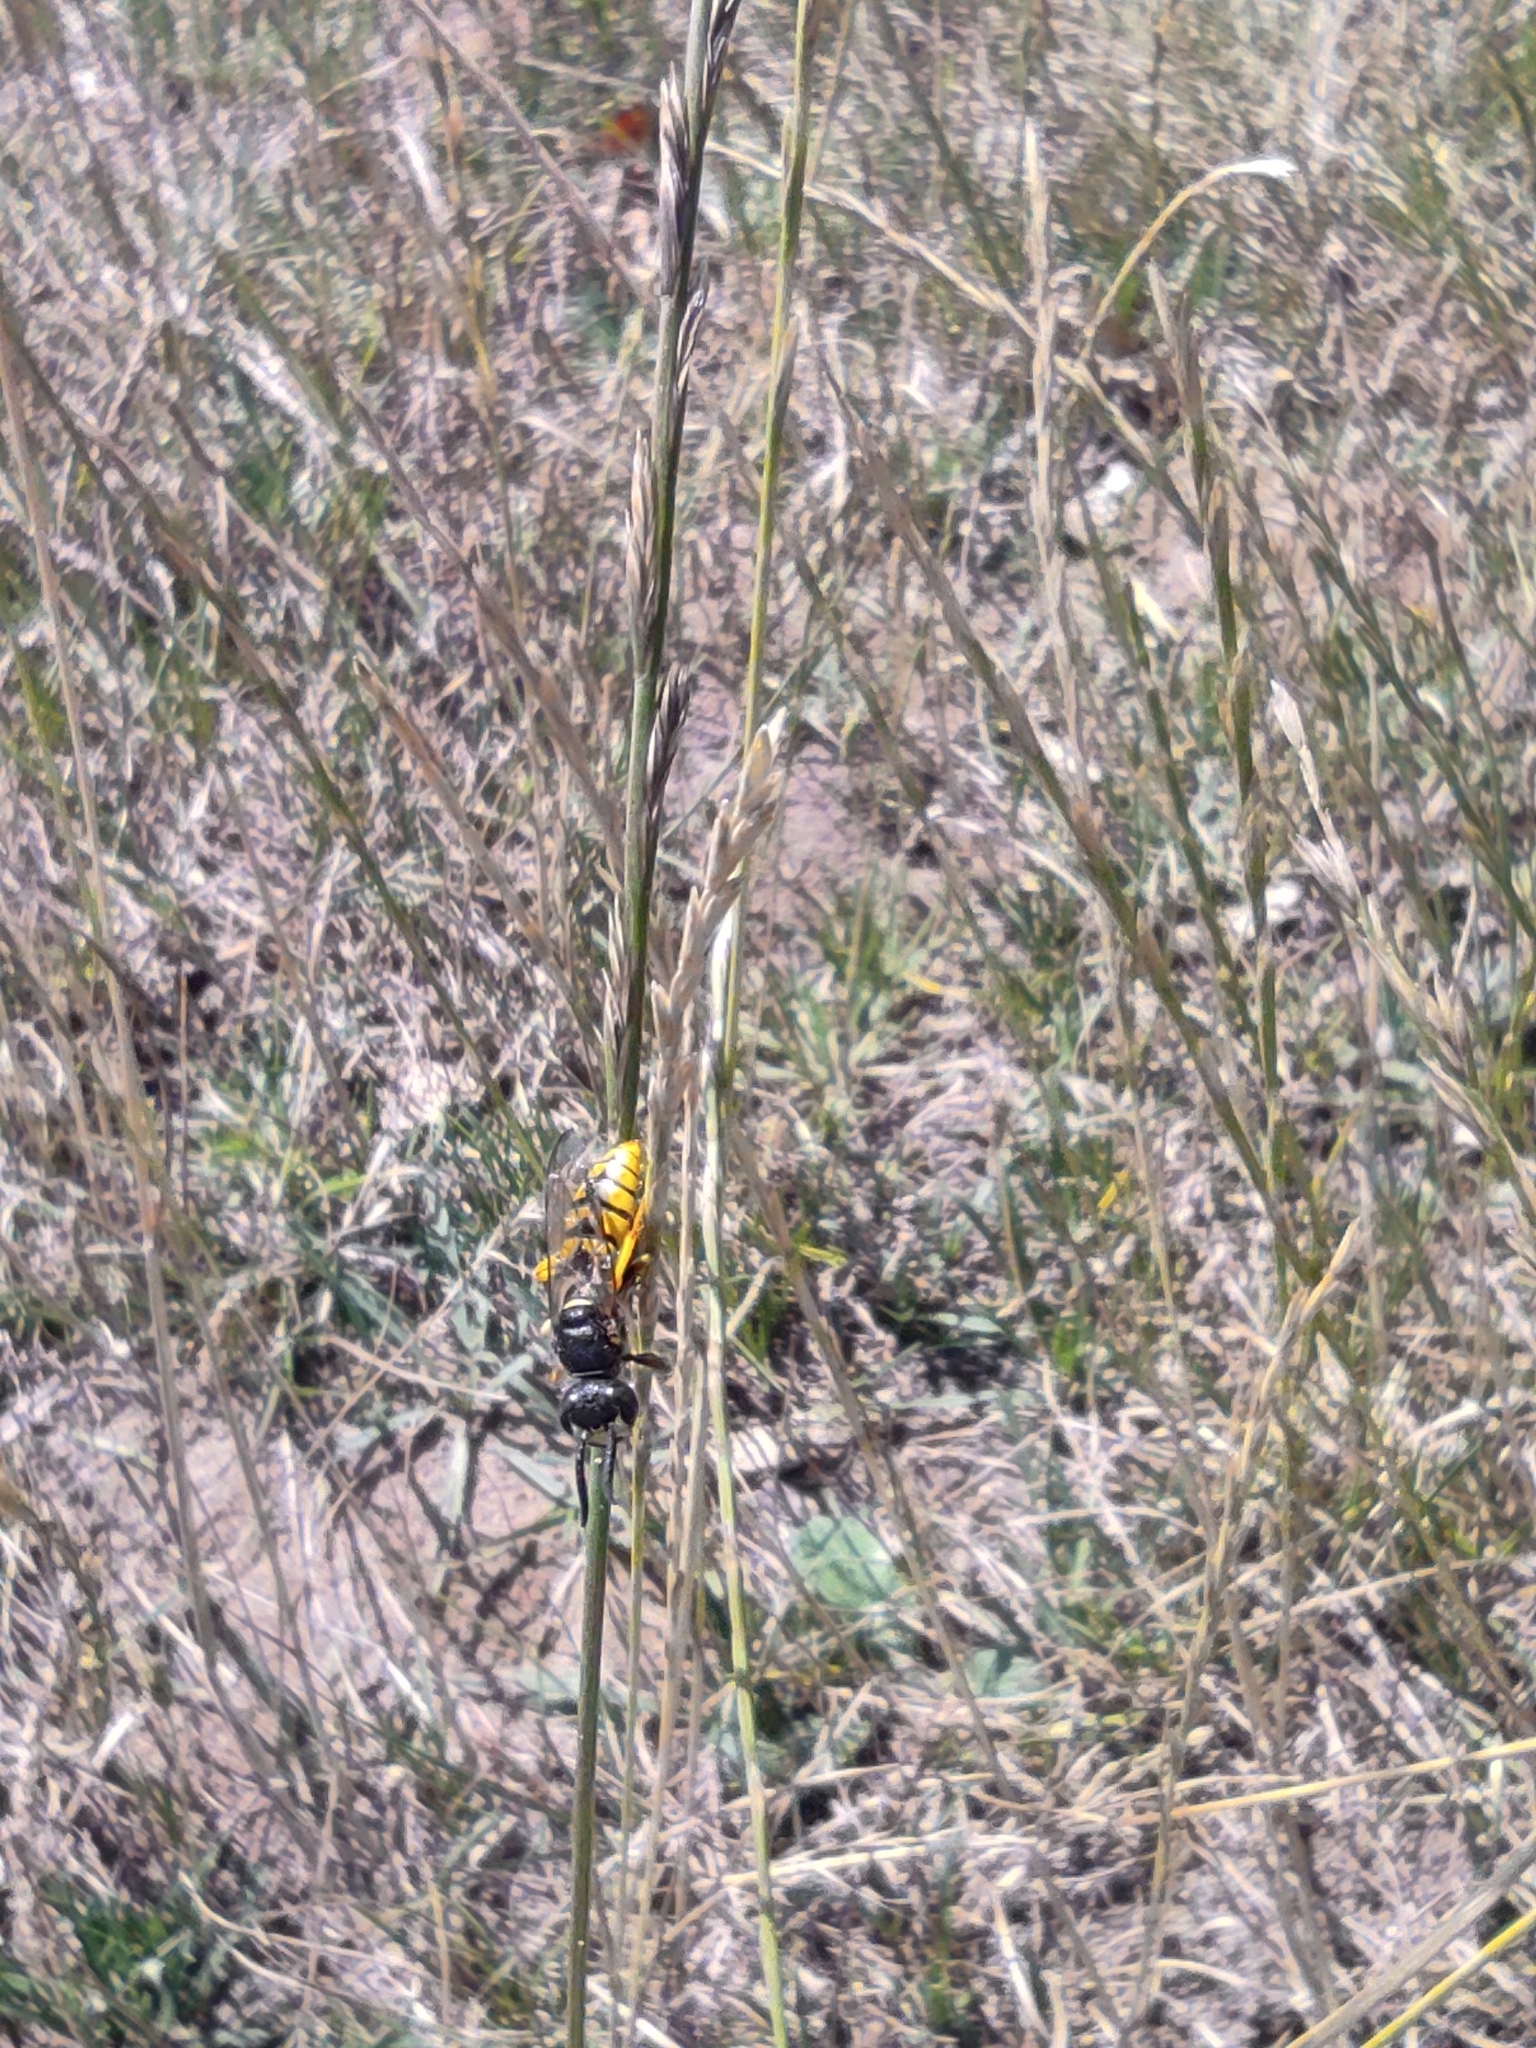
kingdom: Animalia
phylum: Arthropoda
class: Insecta
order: Hymenoptera
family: Crabronidae
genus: Philanthus
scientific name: Philanthus triangulum
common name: Bee wolf
